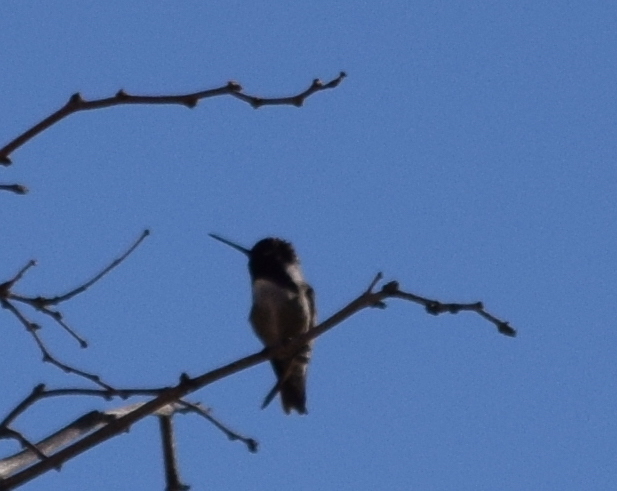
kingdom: Animalia
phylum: Chordata
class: Aves
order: Apodiformes
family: Trochilidae
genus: Calypte
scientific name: Calypte costae
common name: Costa's hummingbird
